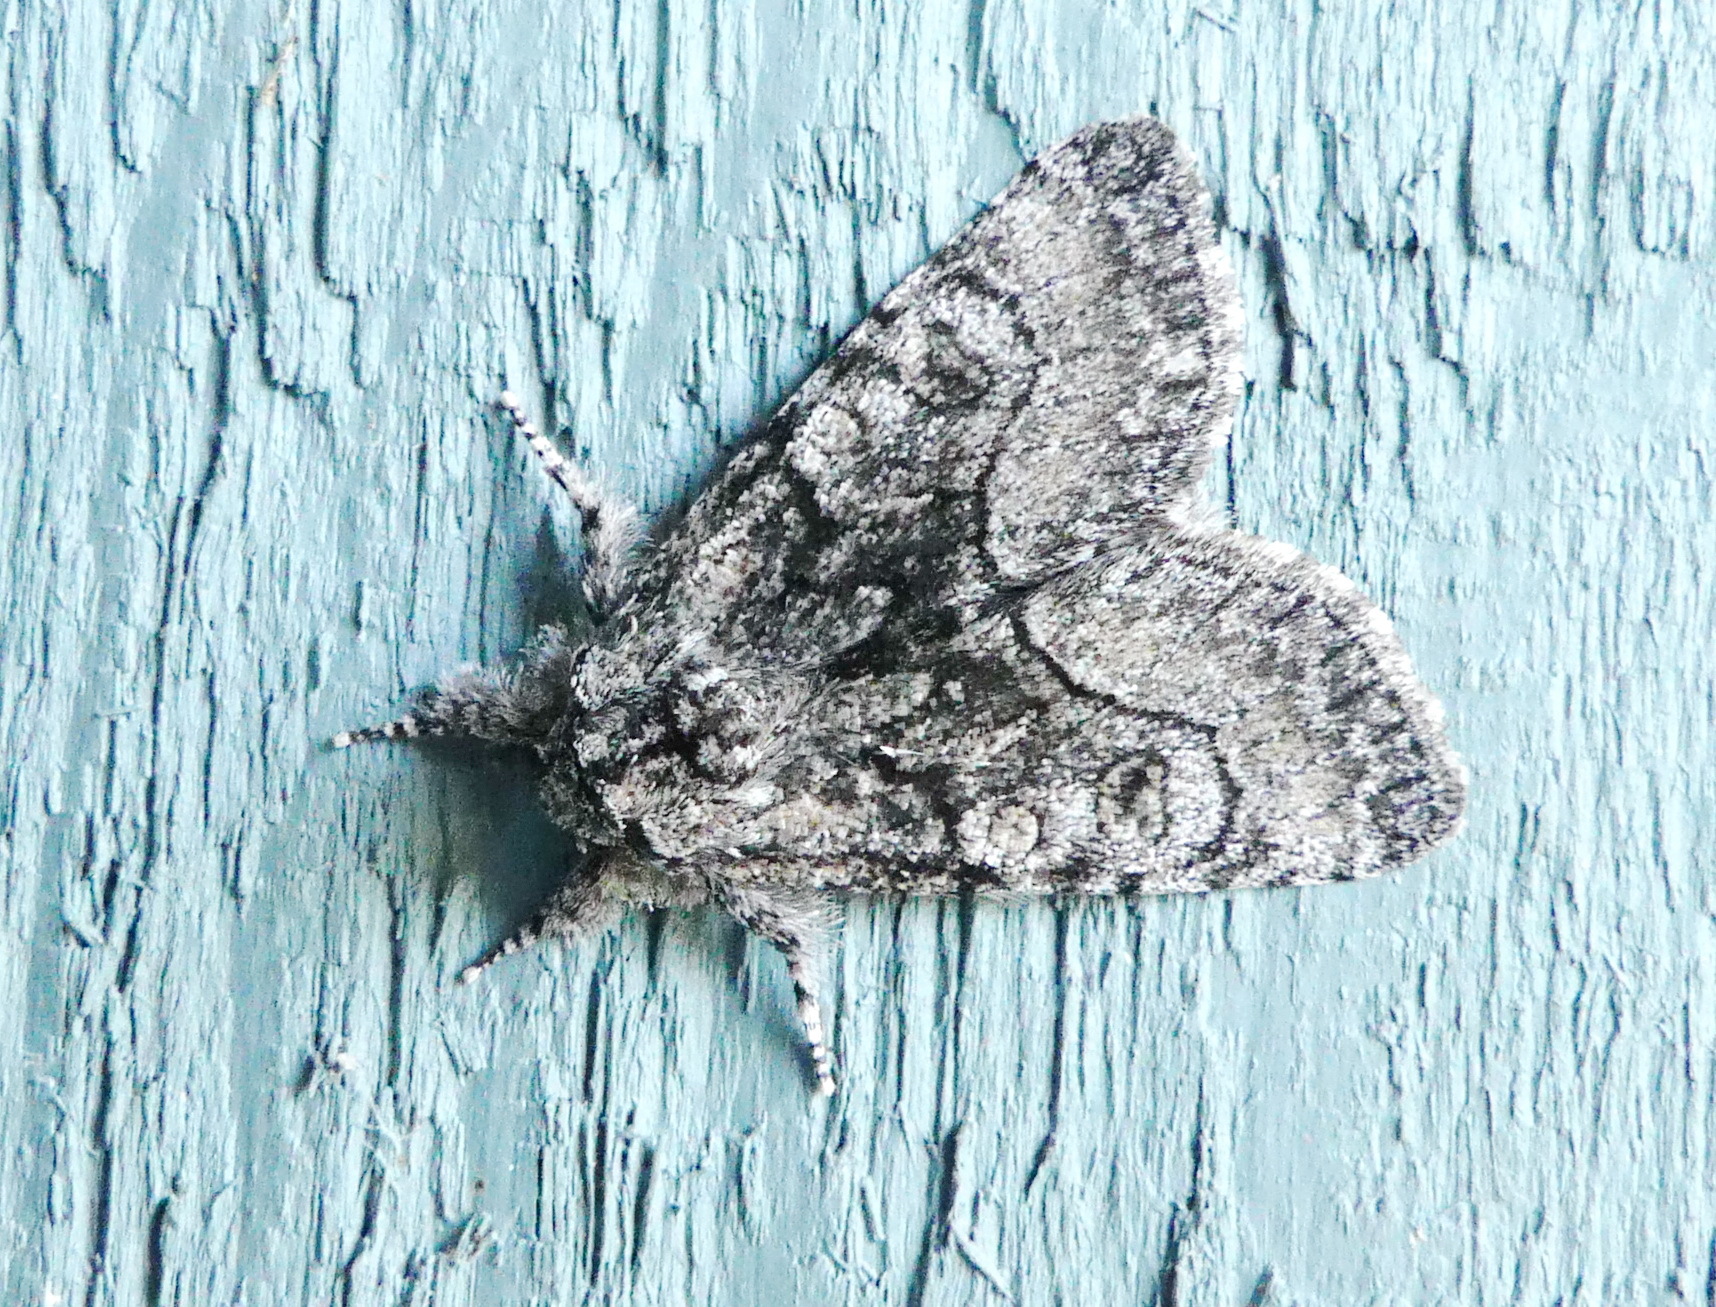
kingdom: Animalia
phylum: Arthropoda
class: Insecta
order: Lepidoptera
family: Noctuidae
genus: Raphia
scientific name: Raphia frater
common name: Brother
